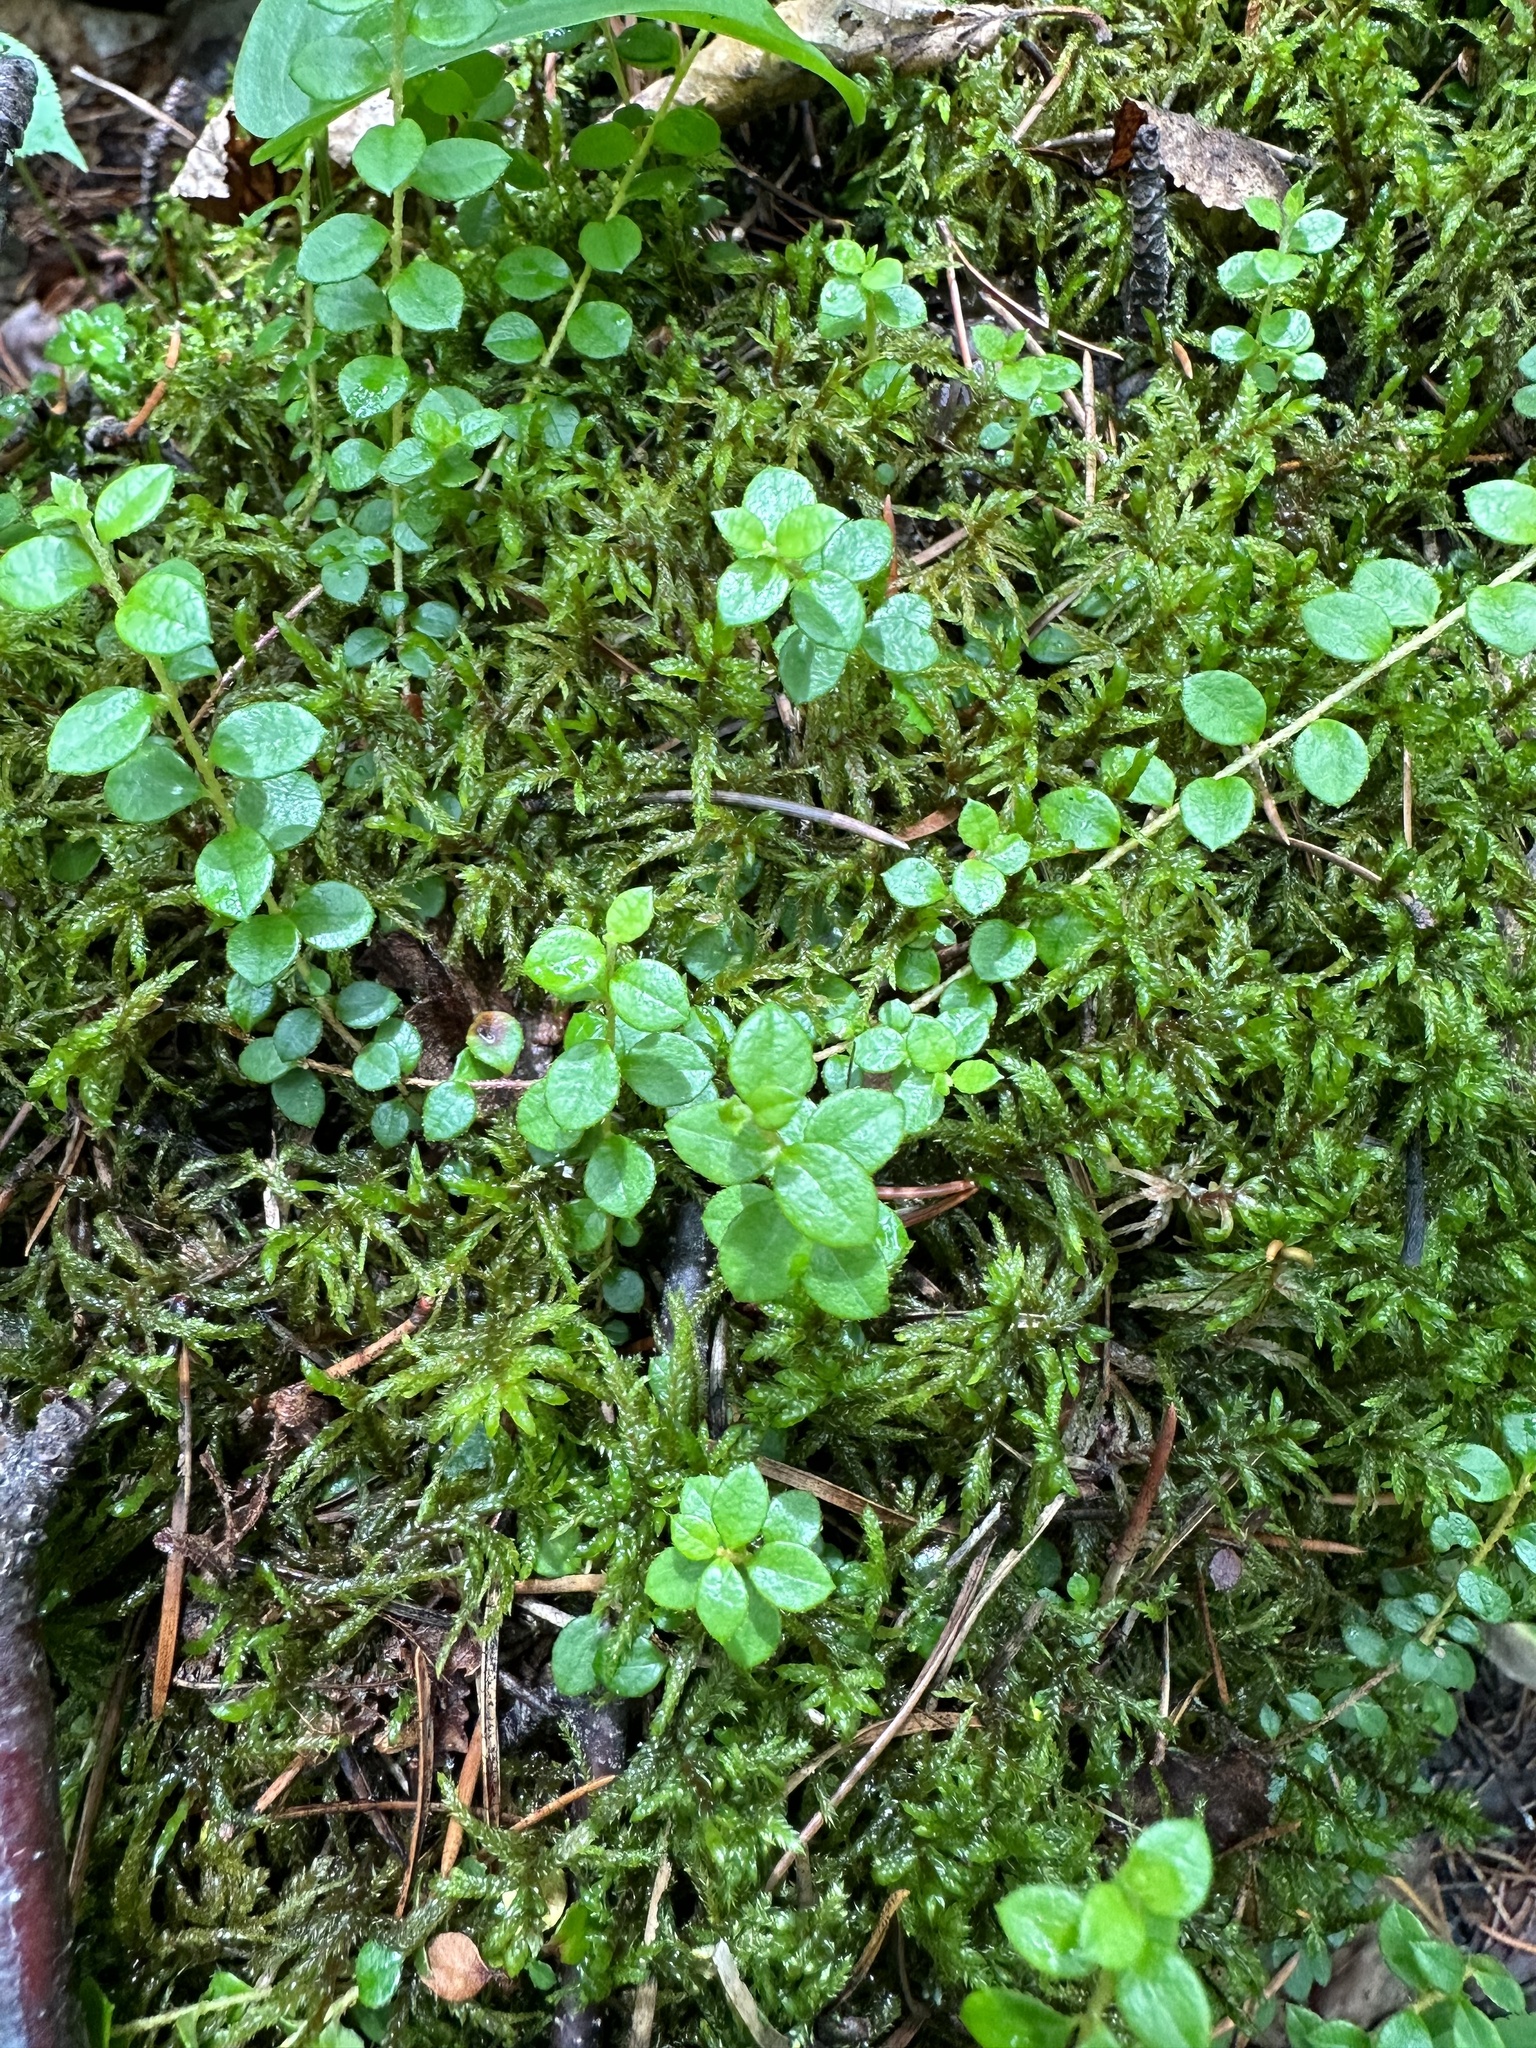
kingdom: Plantae
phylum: Tracheophyta
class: Magnoliopsida
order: Ericales
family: Ericaceae
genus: Gaultheria
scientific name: Gaultheria hispidula
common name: Cancer wintergreen
